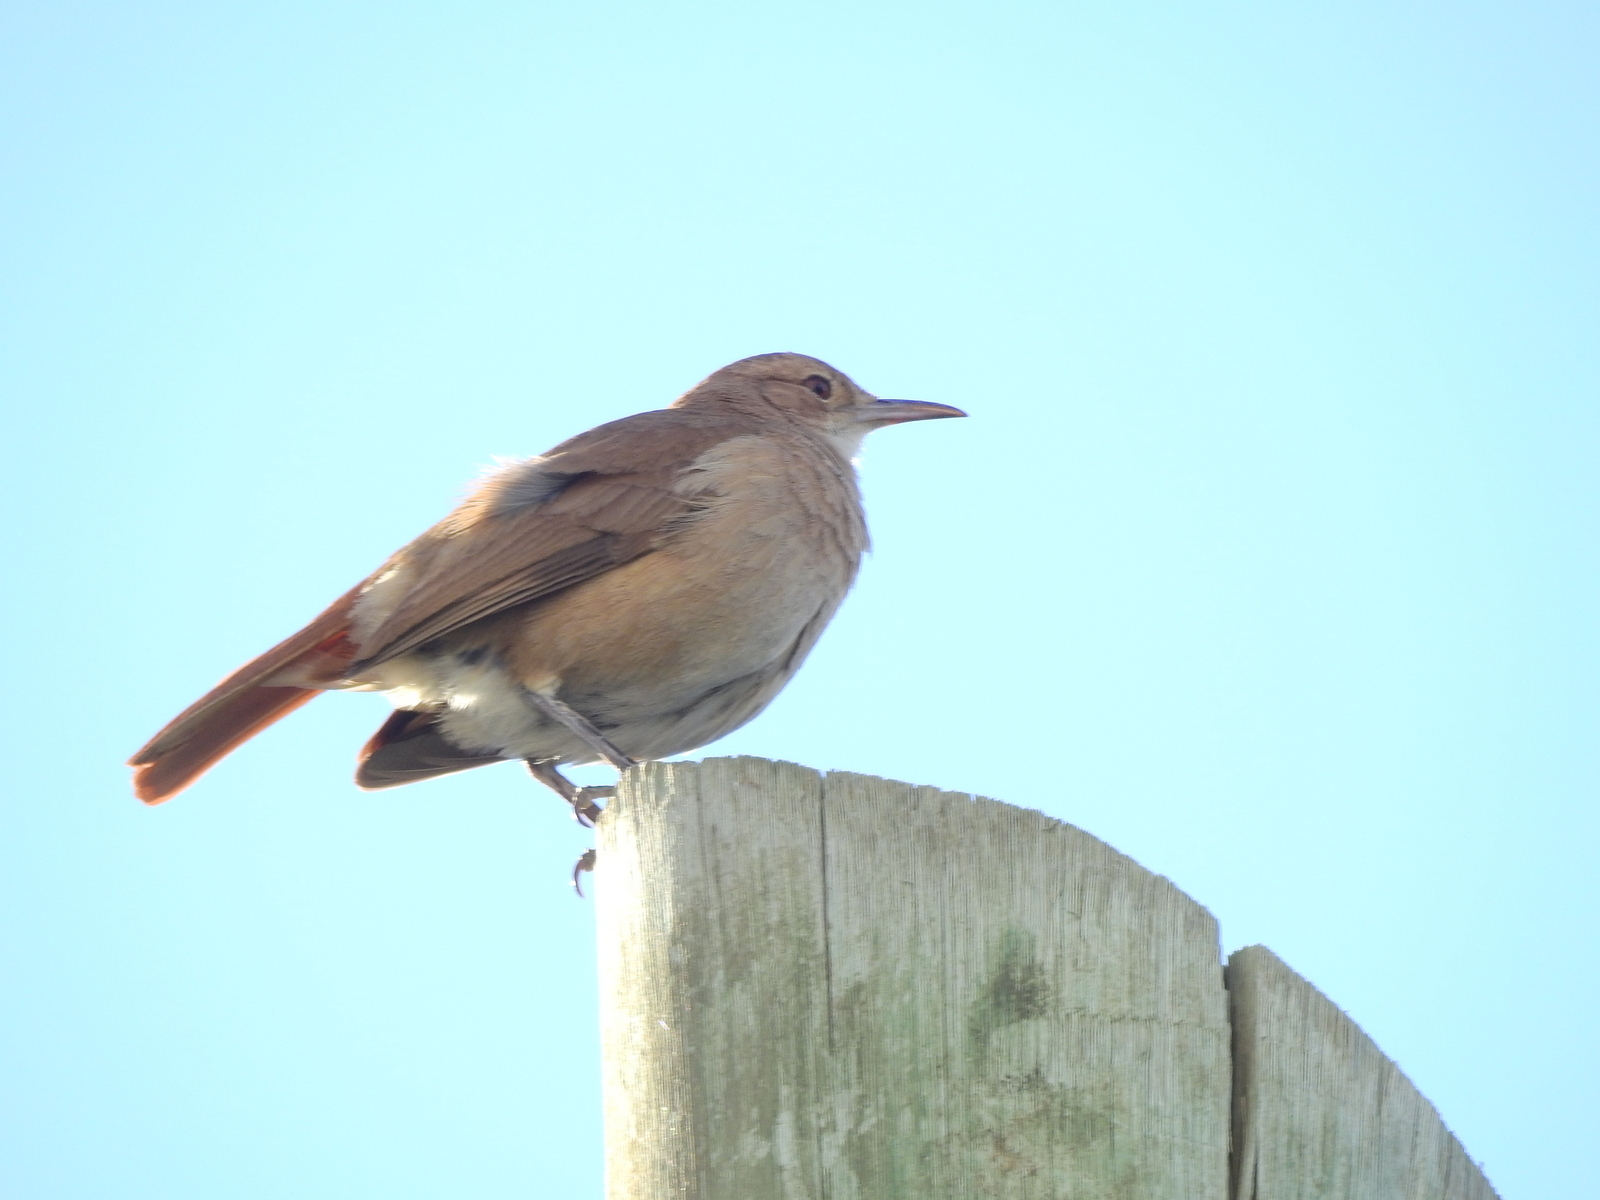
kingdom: Animalia
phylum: Chordata
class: Aves
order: Passeriformes
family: Furnariidae
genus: Furnarius
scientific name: Furnarius rufus
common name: Rufous hornero
